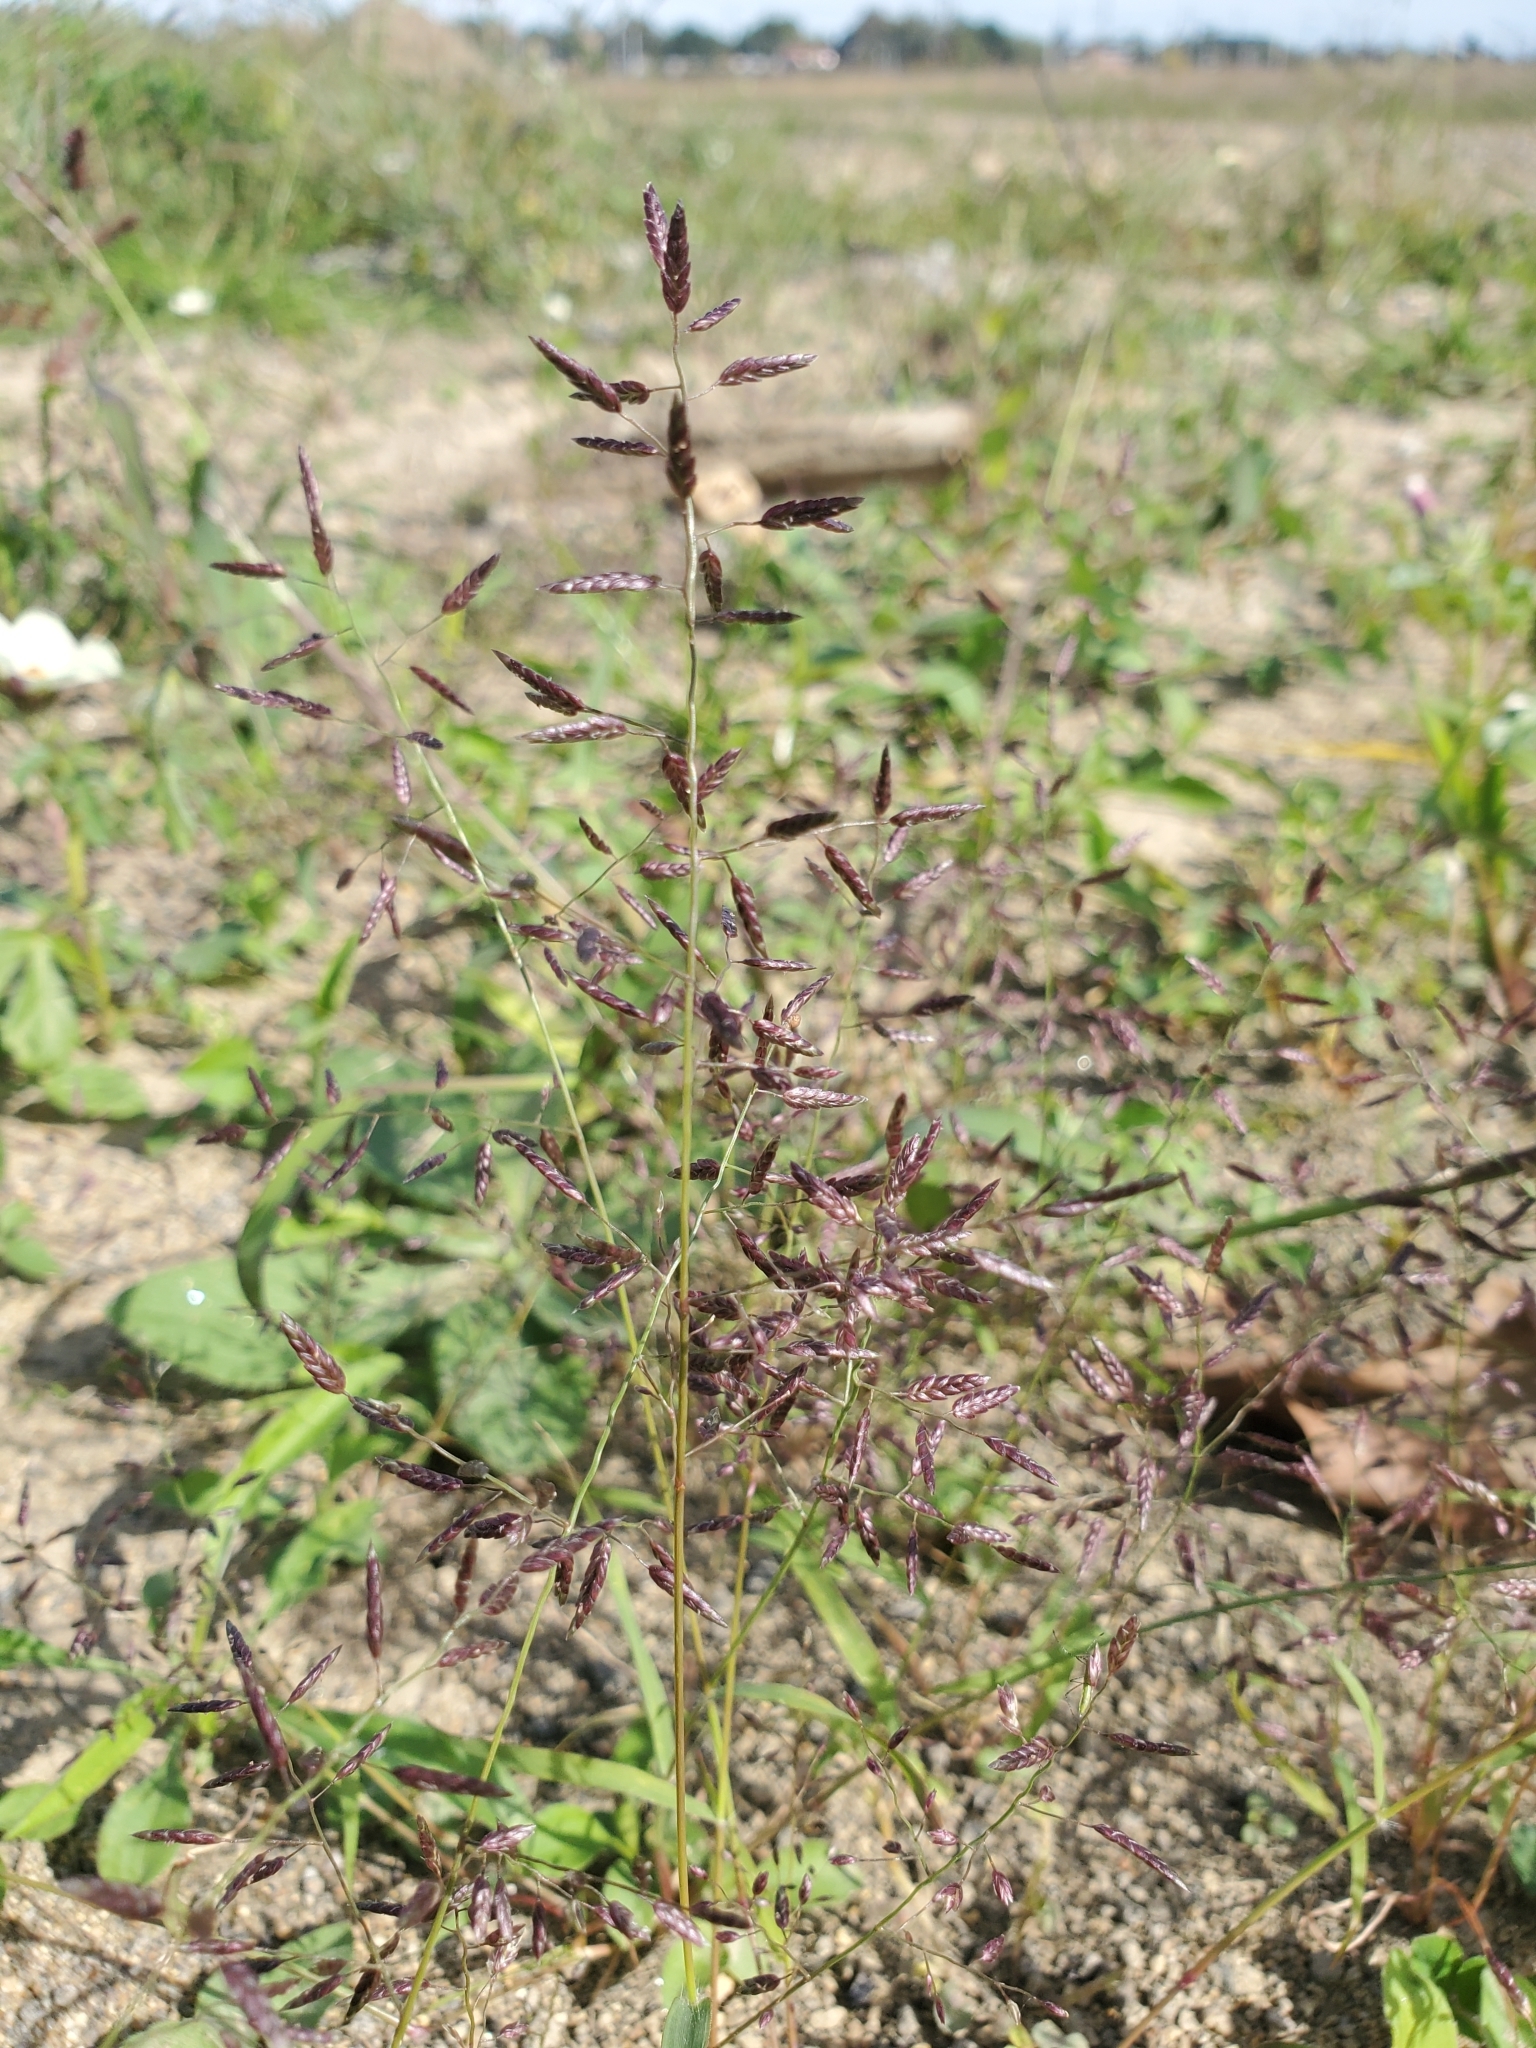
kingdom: Plantae
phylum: Tracheophyta
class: Liliopsida
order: Poales
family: Poaceae
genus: Eragrostis
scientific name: Eragrostis minor
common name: Small love-grass
